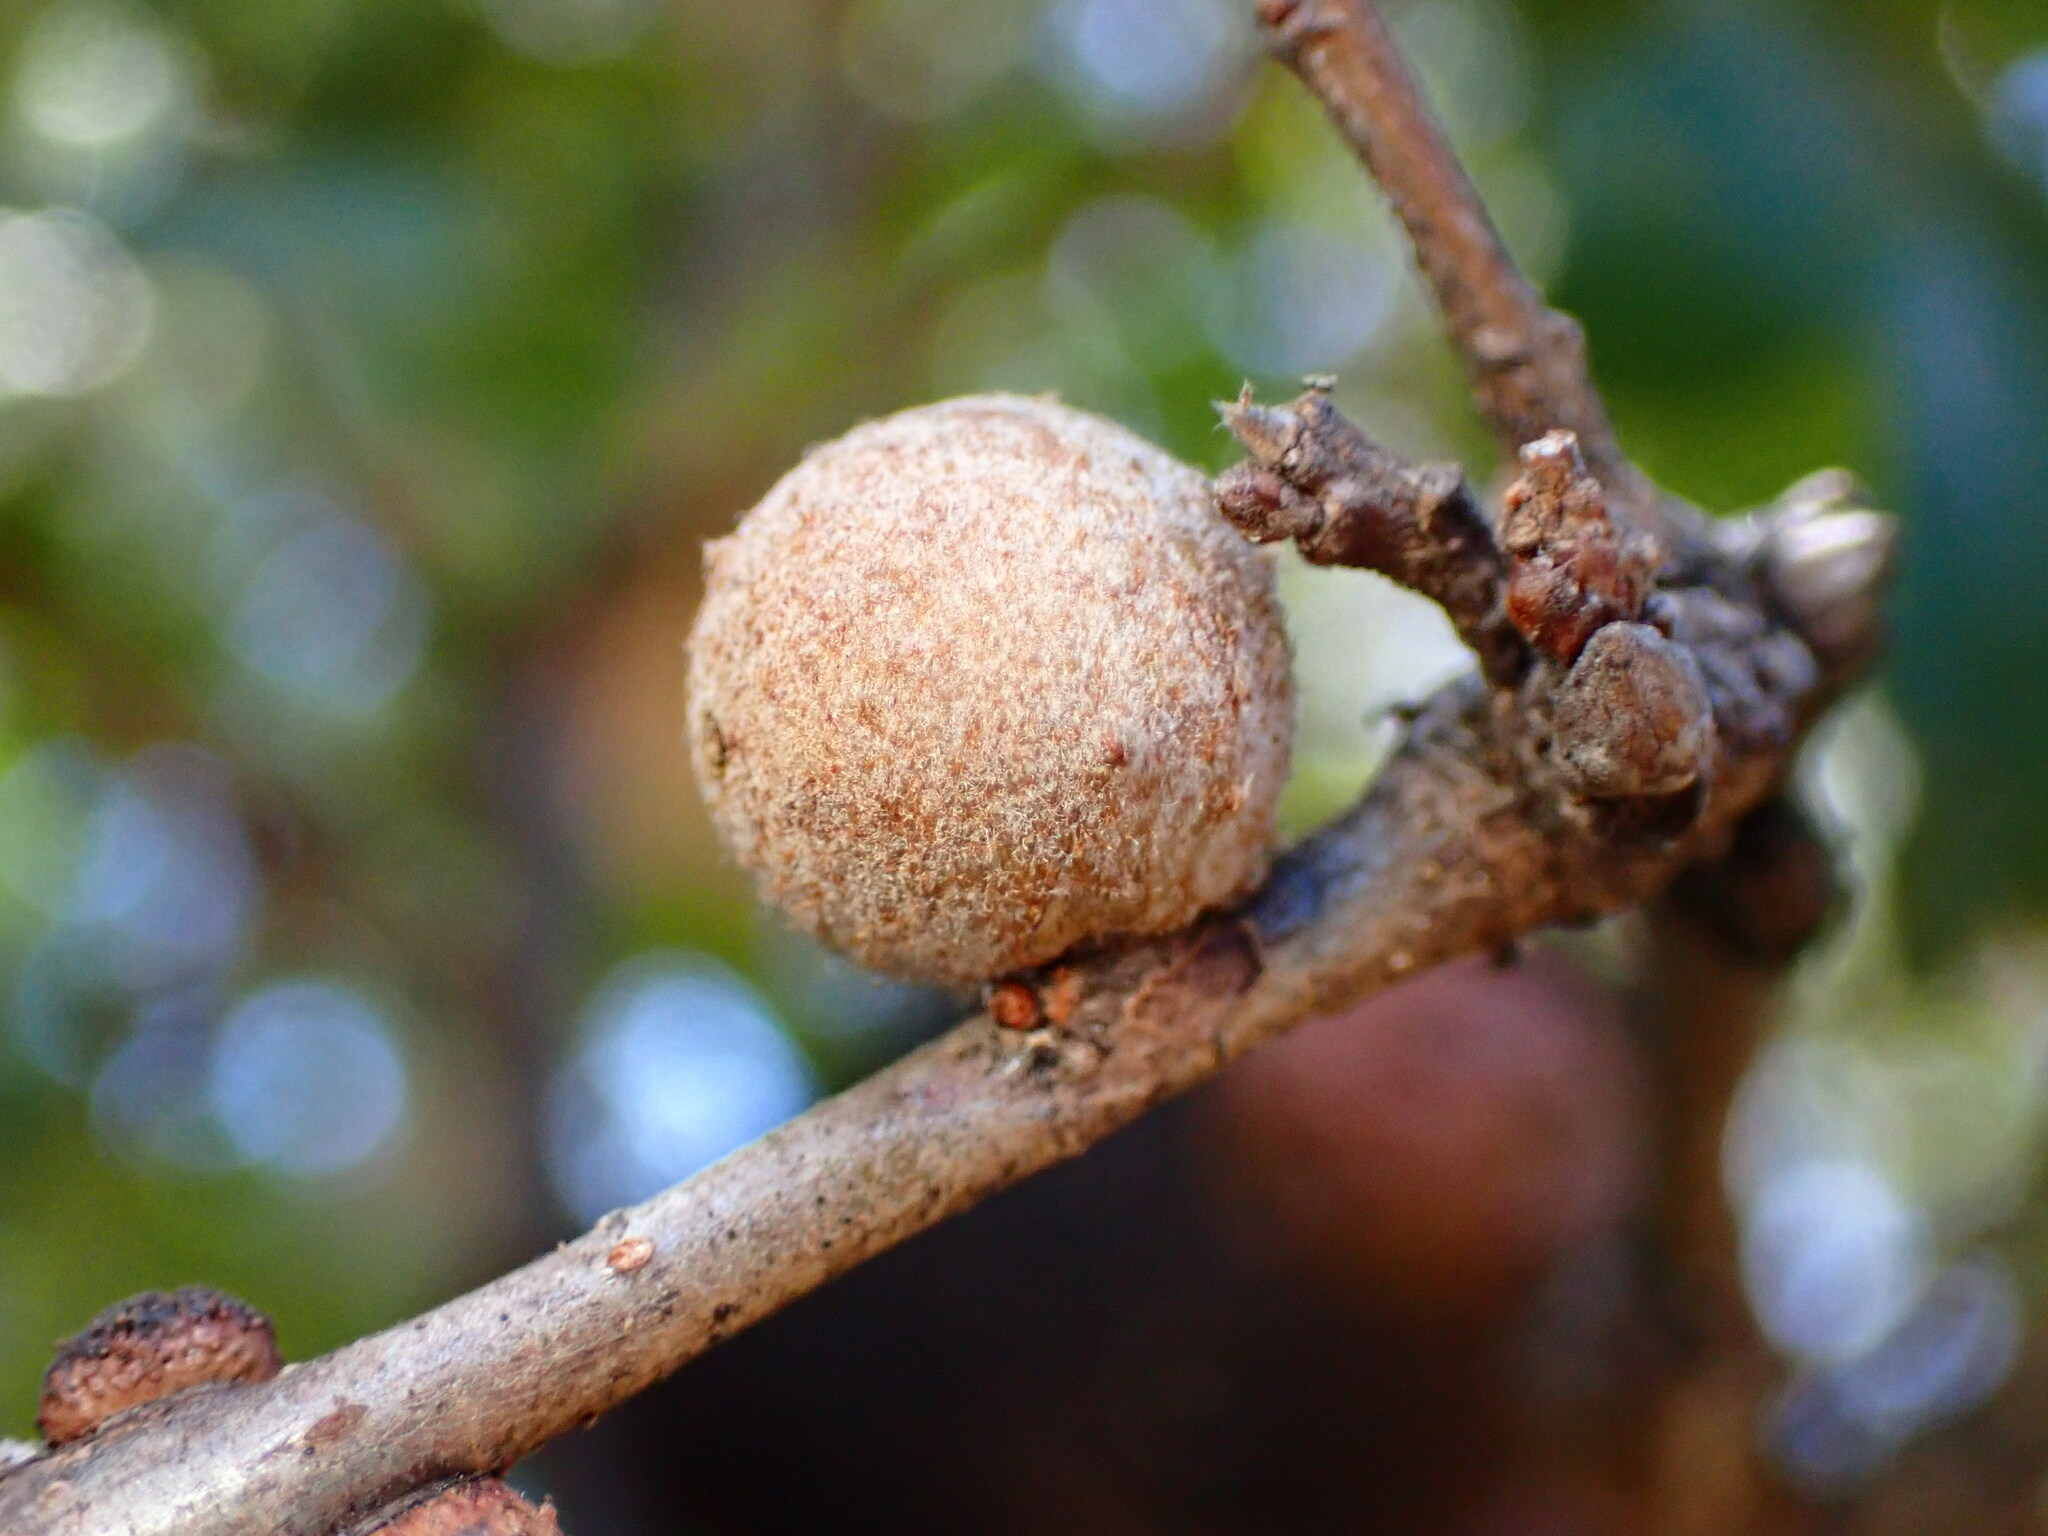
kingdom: Animalia
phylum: Arthropoda
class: Insecta
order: Hymenoptera
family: Cynipidae
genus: Burnettweldia
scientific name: Burnettweldia
